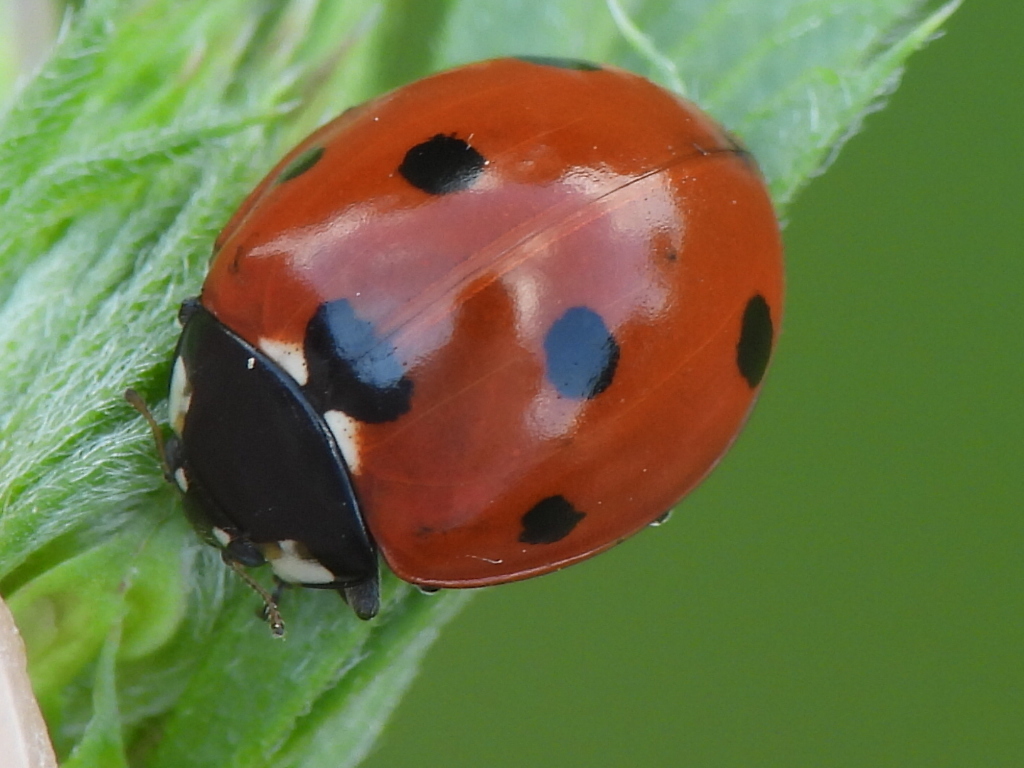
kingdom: Animalia
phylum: Arthropoda
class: Insecta
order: Coleoptera
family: Coccinellidae
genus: Coccinella
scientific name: Coccinella septempunctata
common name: Sevenspotted lady beetle
